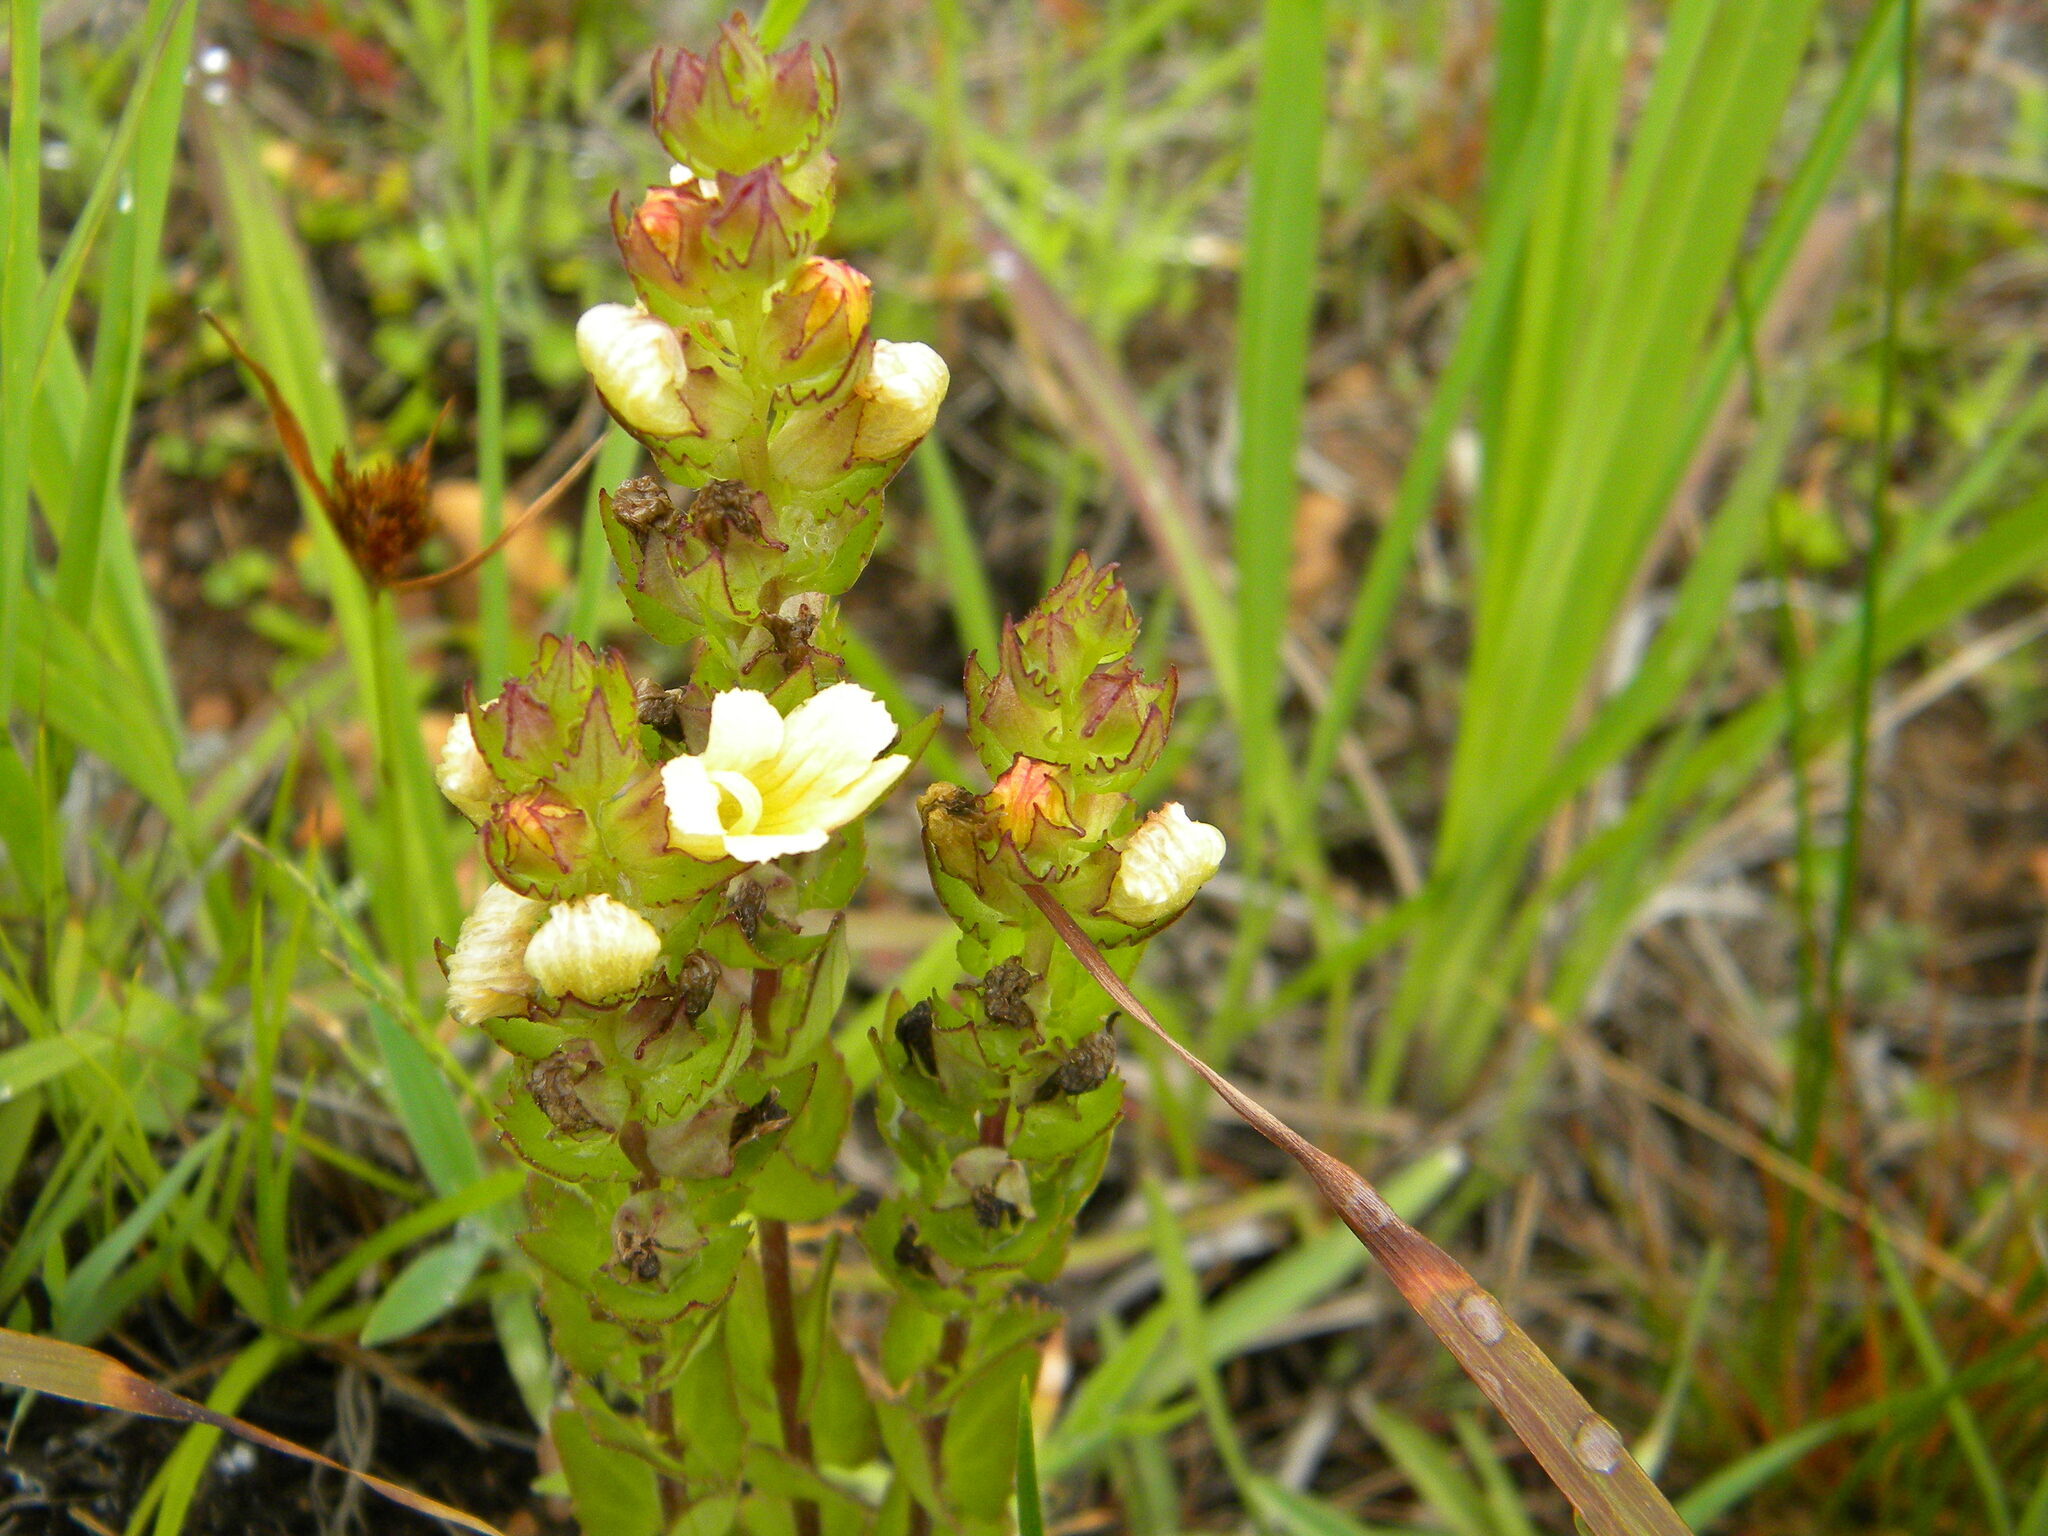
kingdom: Plantae
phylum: Tracheophyta
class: Magnoliopsida
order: Lamiales
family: Orobanchaceae
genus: Alectra
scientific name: Alectra sessiliflora
